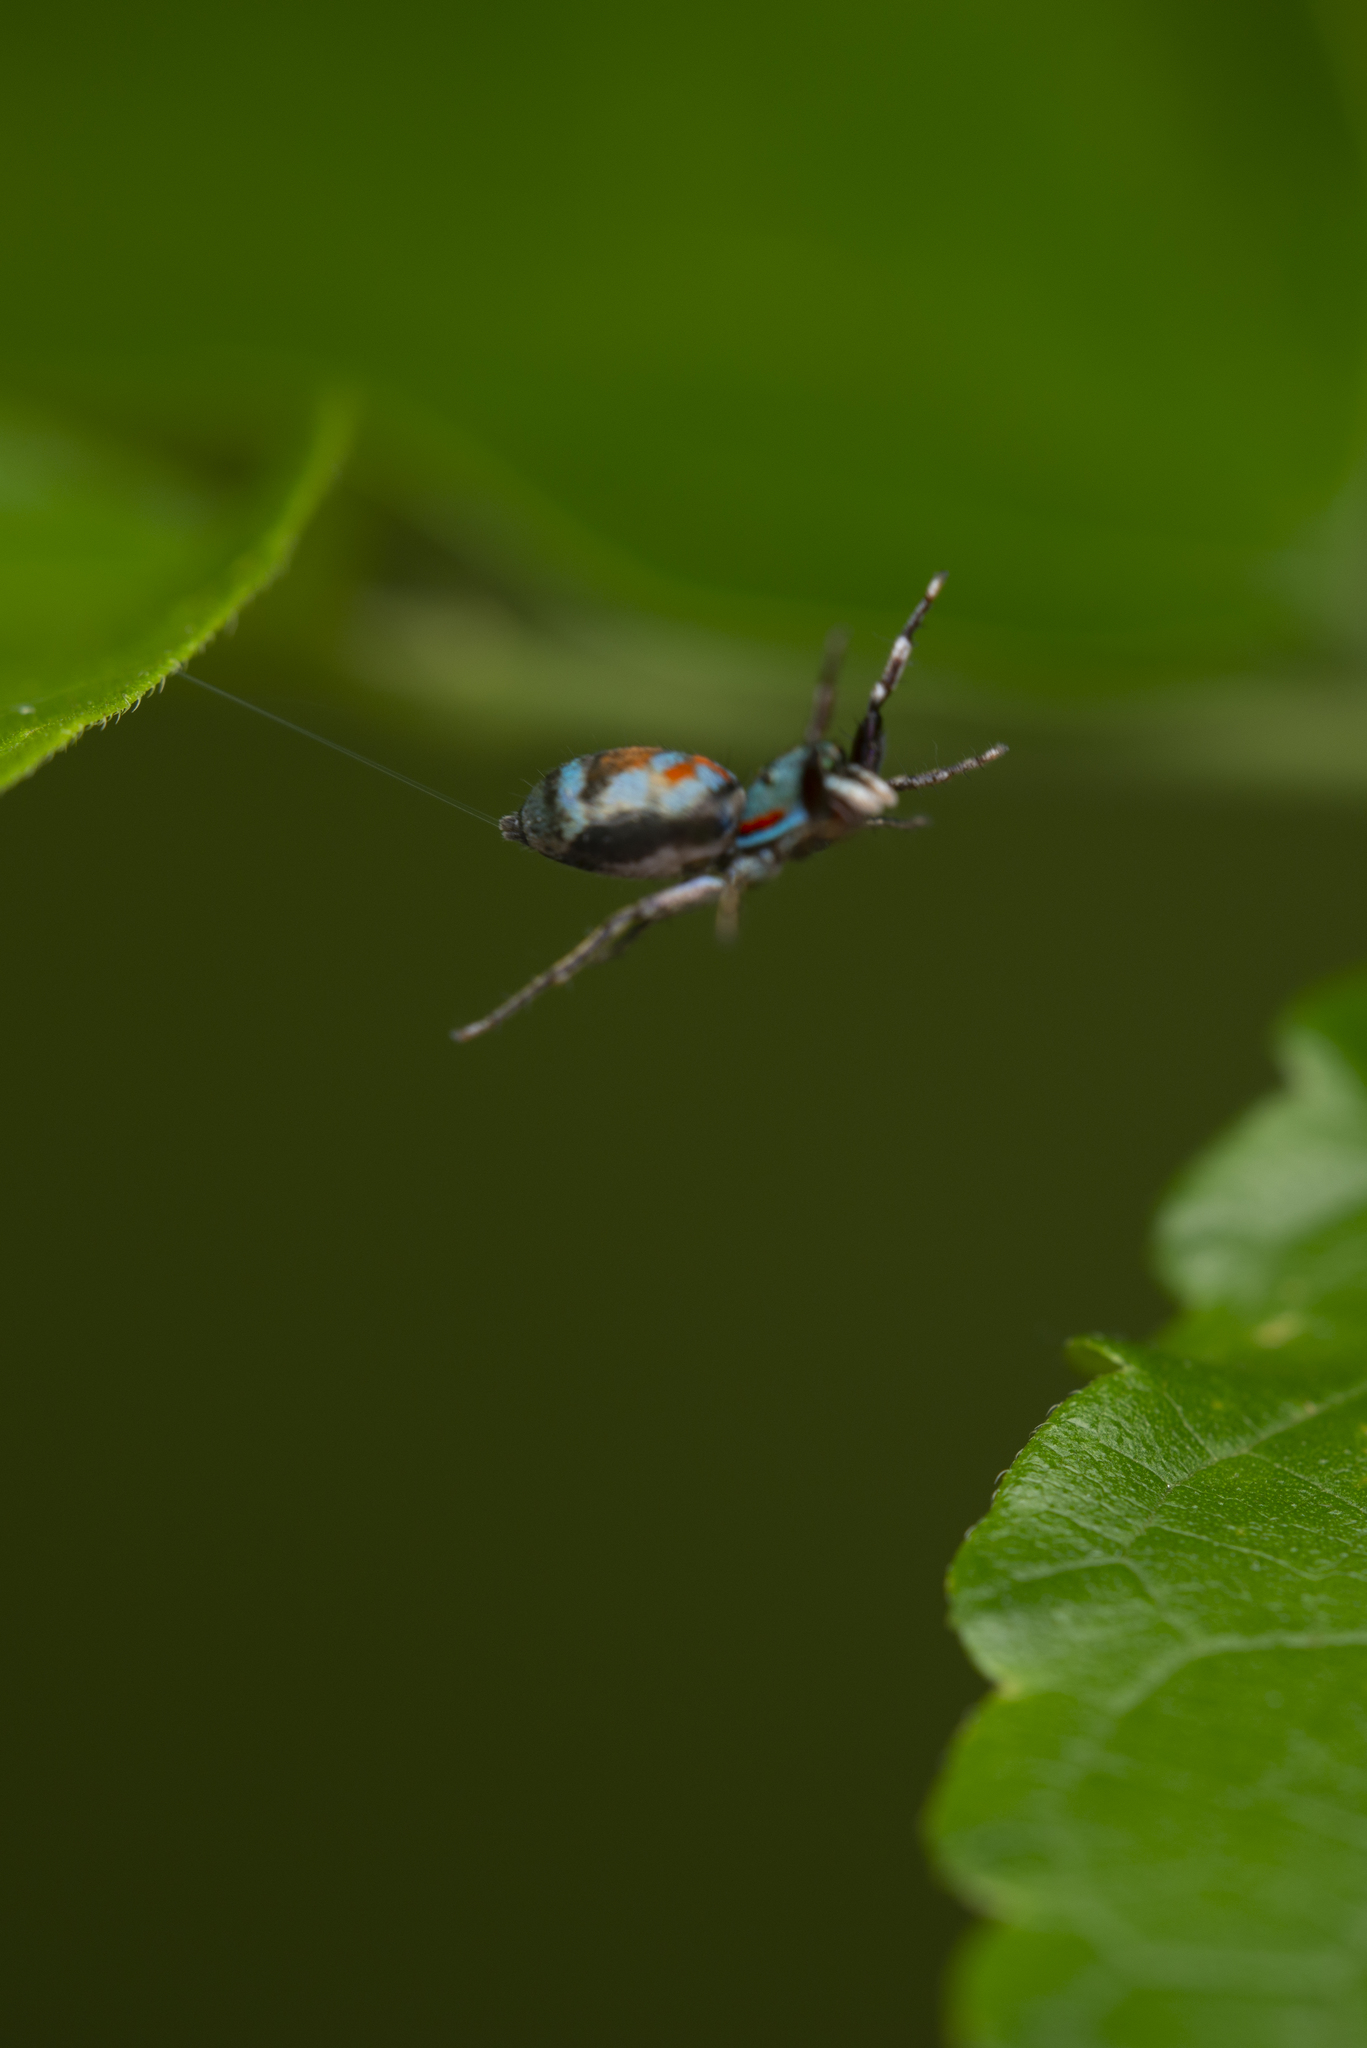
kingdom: Animalia
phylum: Arthropoda
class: Arachnida
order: Araneae
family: Salticidae
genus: Siler
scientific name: Siler collingwoodi
